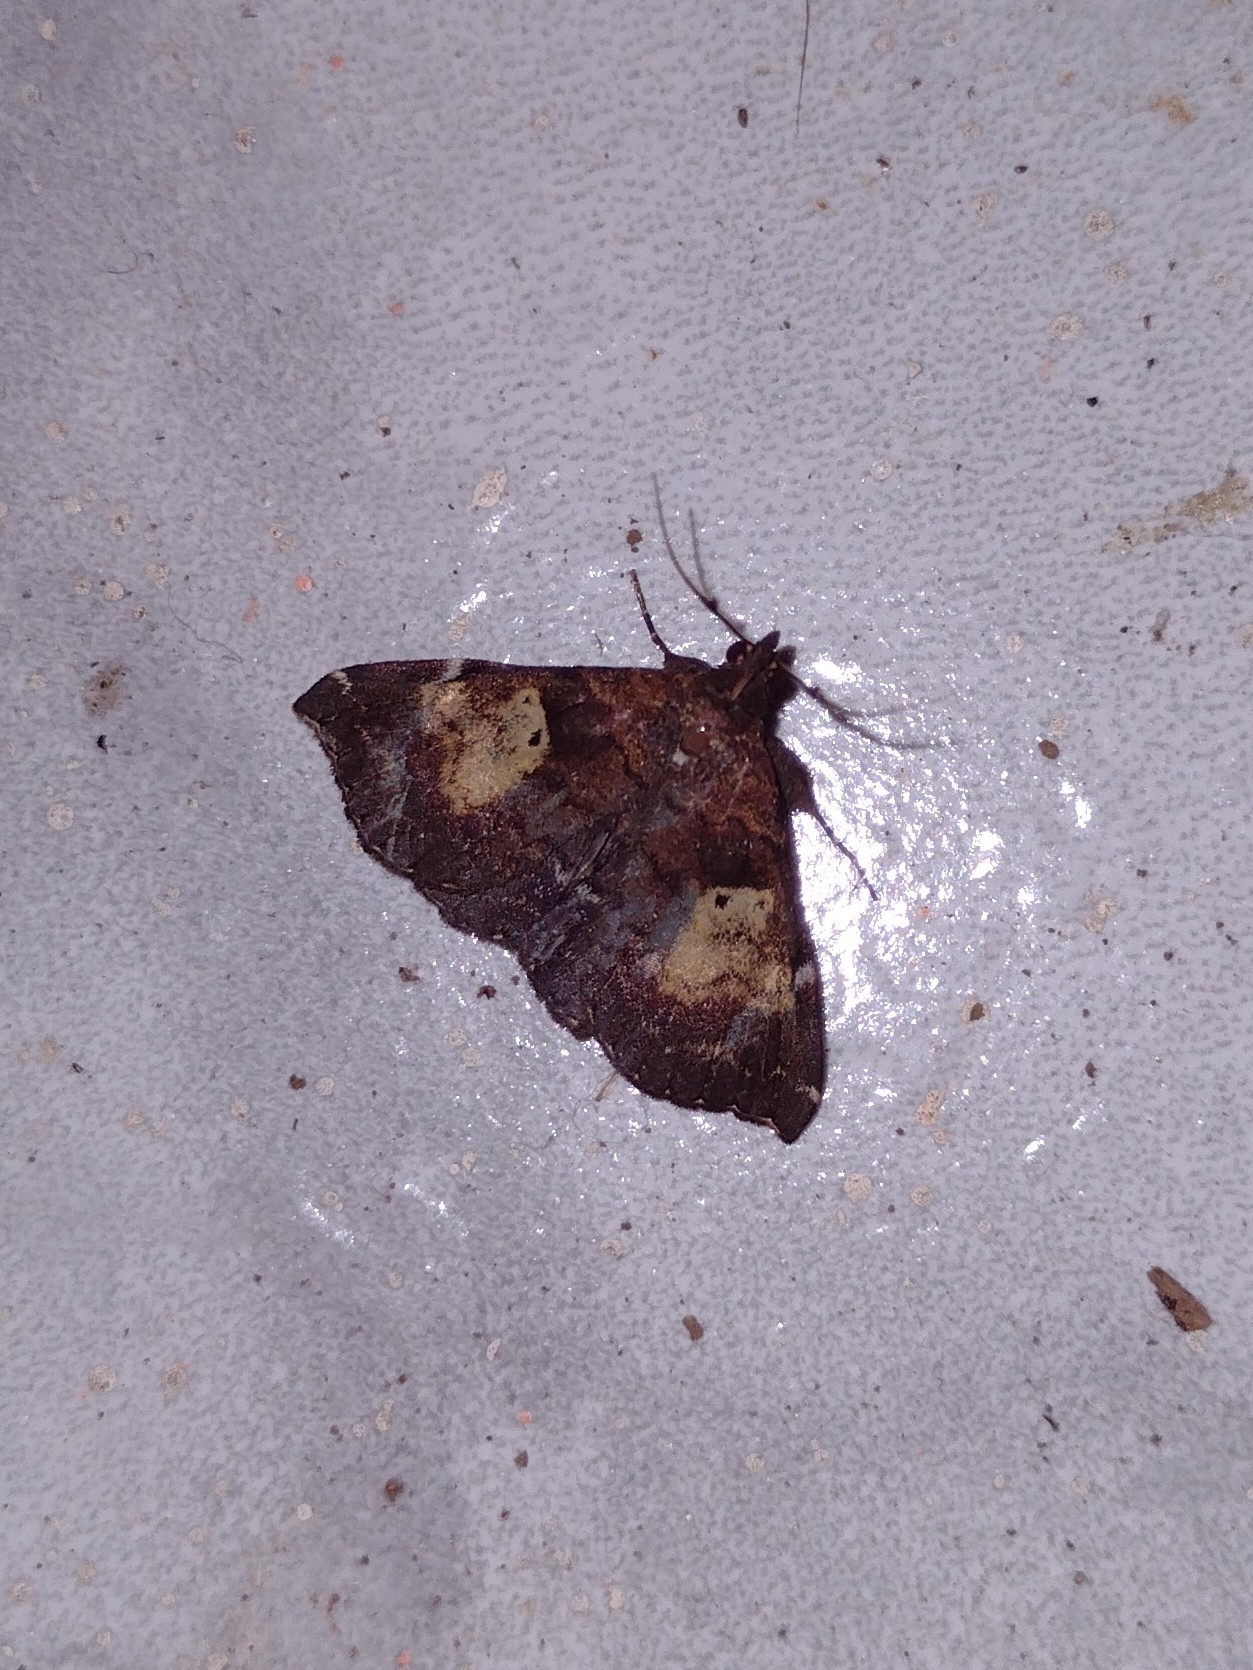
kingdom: Animalia
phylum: Arthropoda
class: Insecta
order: Lepidoptera
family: Erebidae
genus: Phlyctaina
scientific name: Phlyctaina irrigualis
